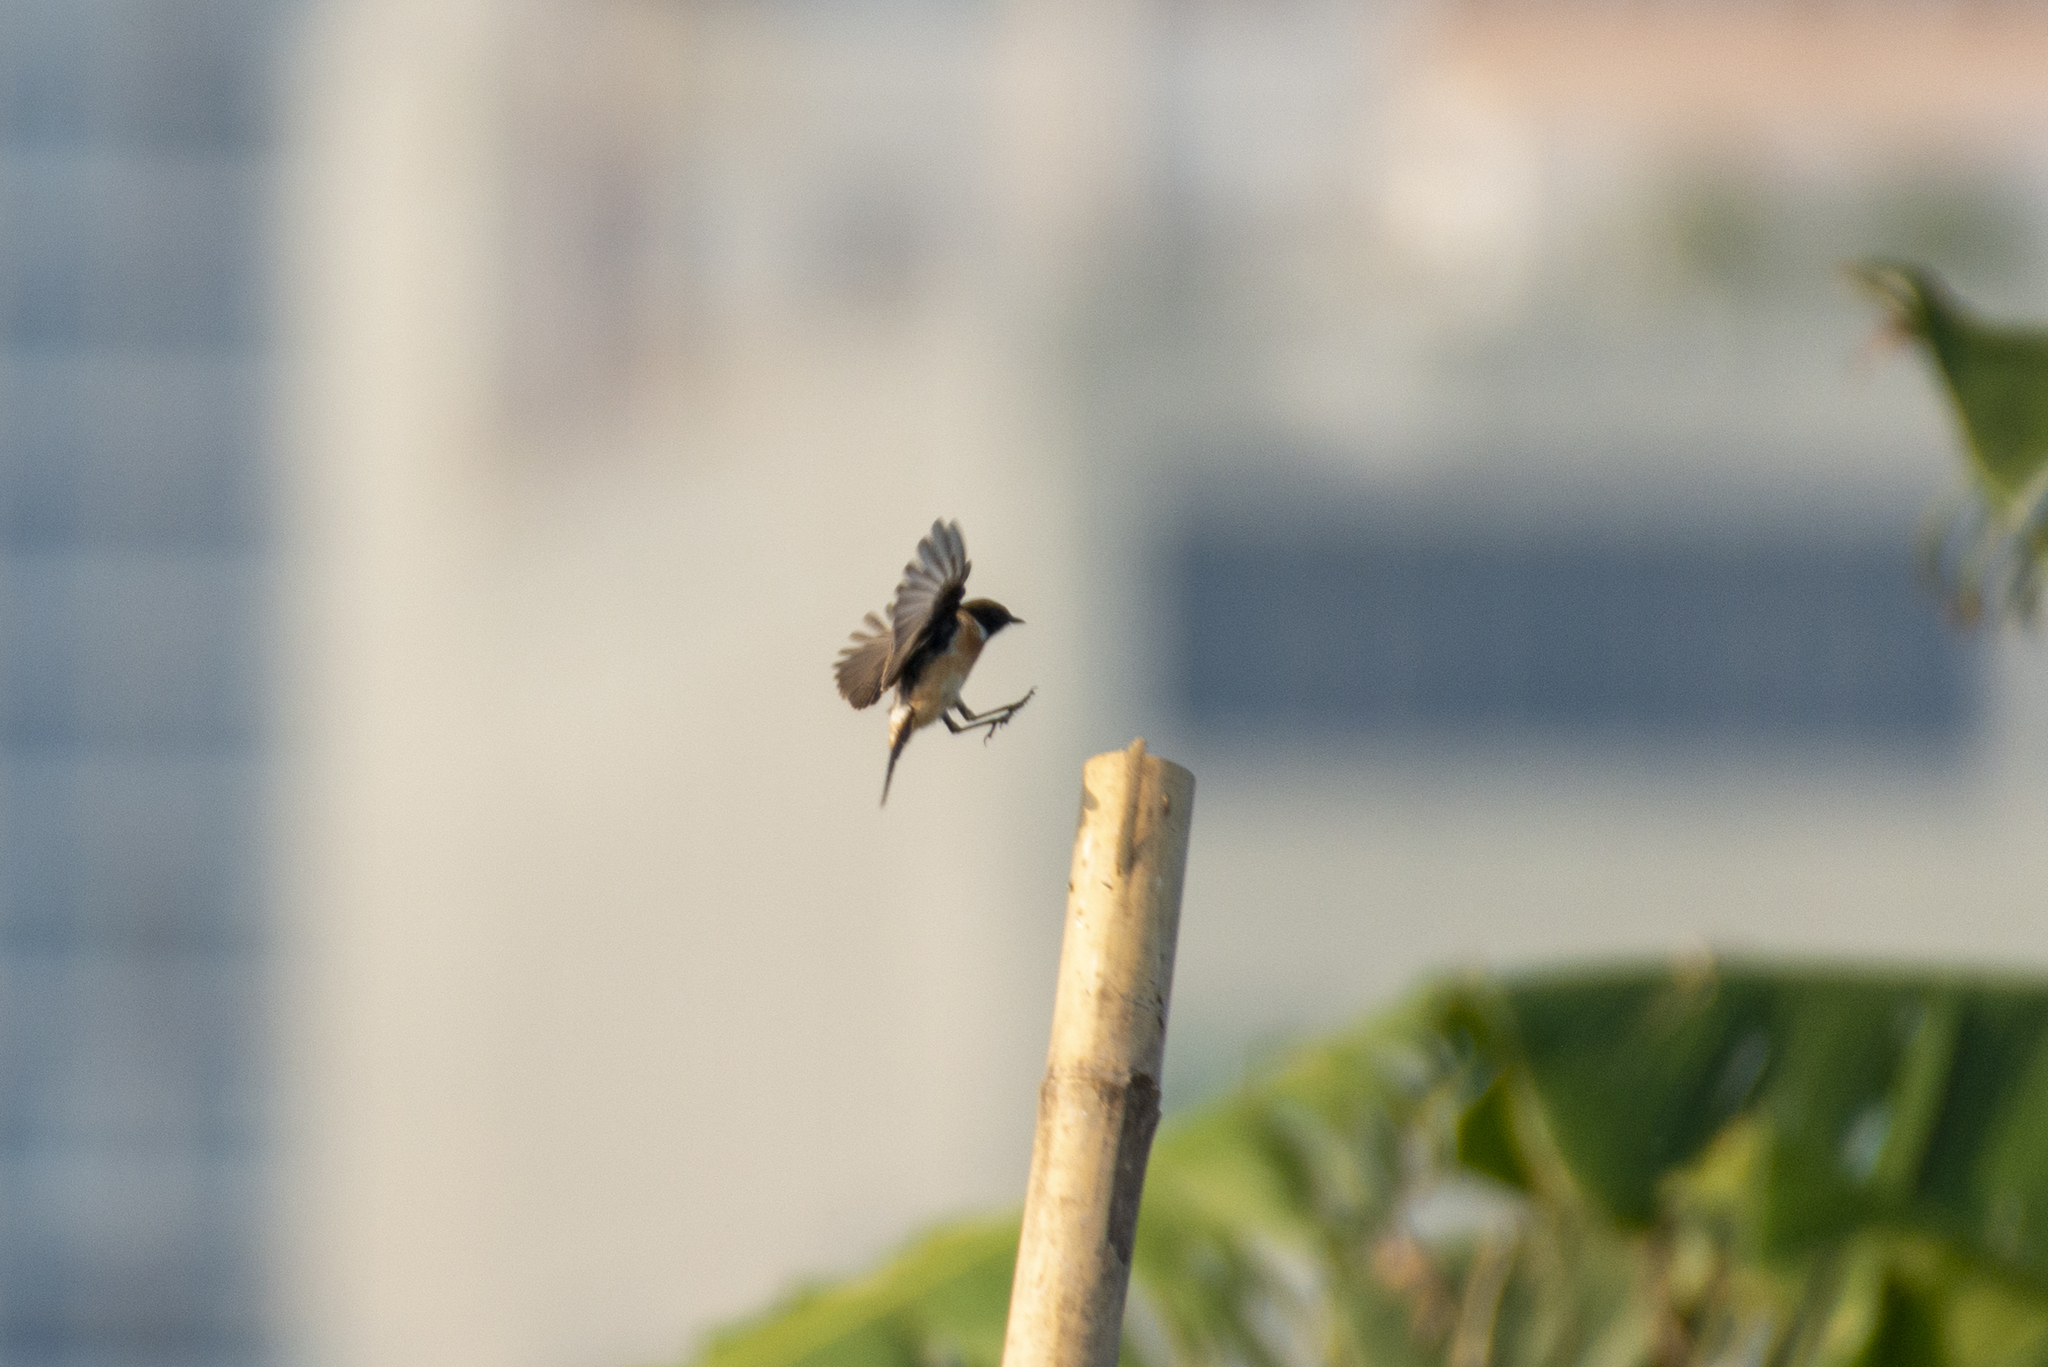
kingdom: Animalia
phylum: Chordata
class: Aves
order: Passeriformes
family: Muscicapidae
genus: Saxicola
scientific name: Saxicola maurus
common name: Siberian stonechat
